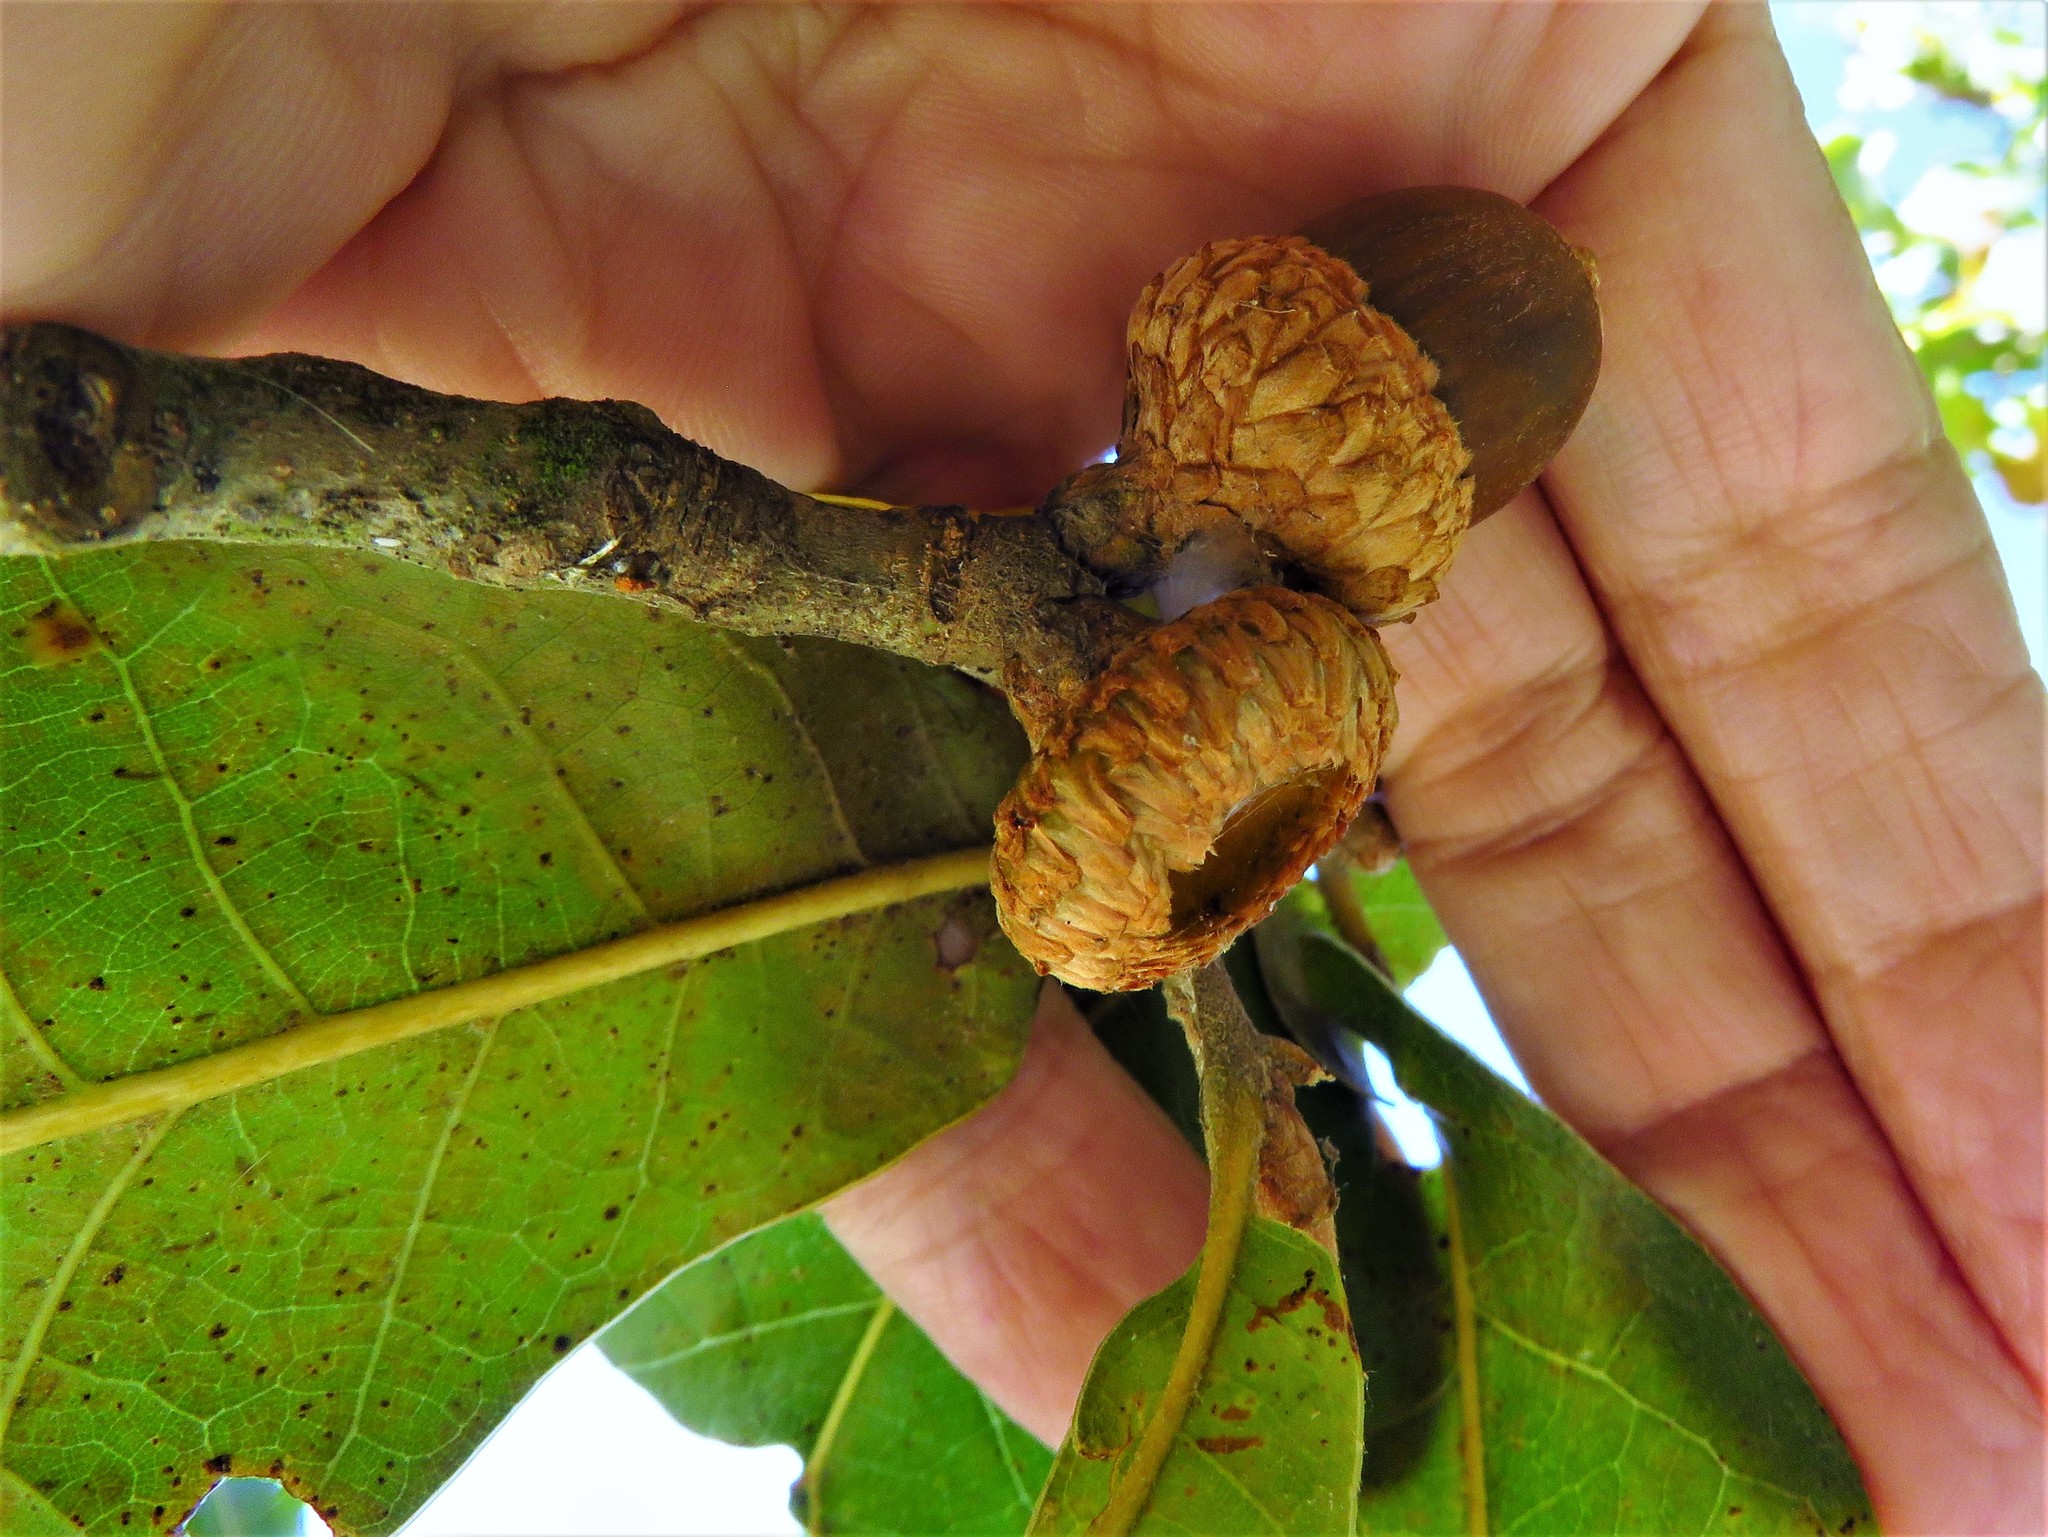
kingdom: Plantae
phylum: Tracheophyta
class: Magnoliopsida
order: Fagales
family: Fagaceae
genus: Quercus
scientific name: Quercus marilandica
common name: Blackjack oak
